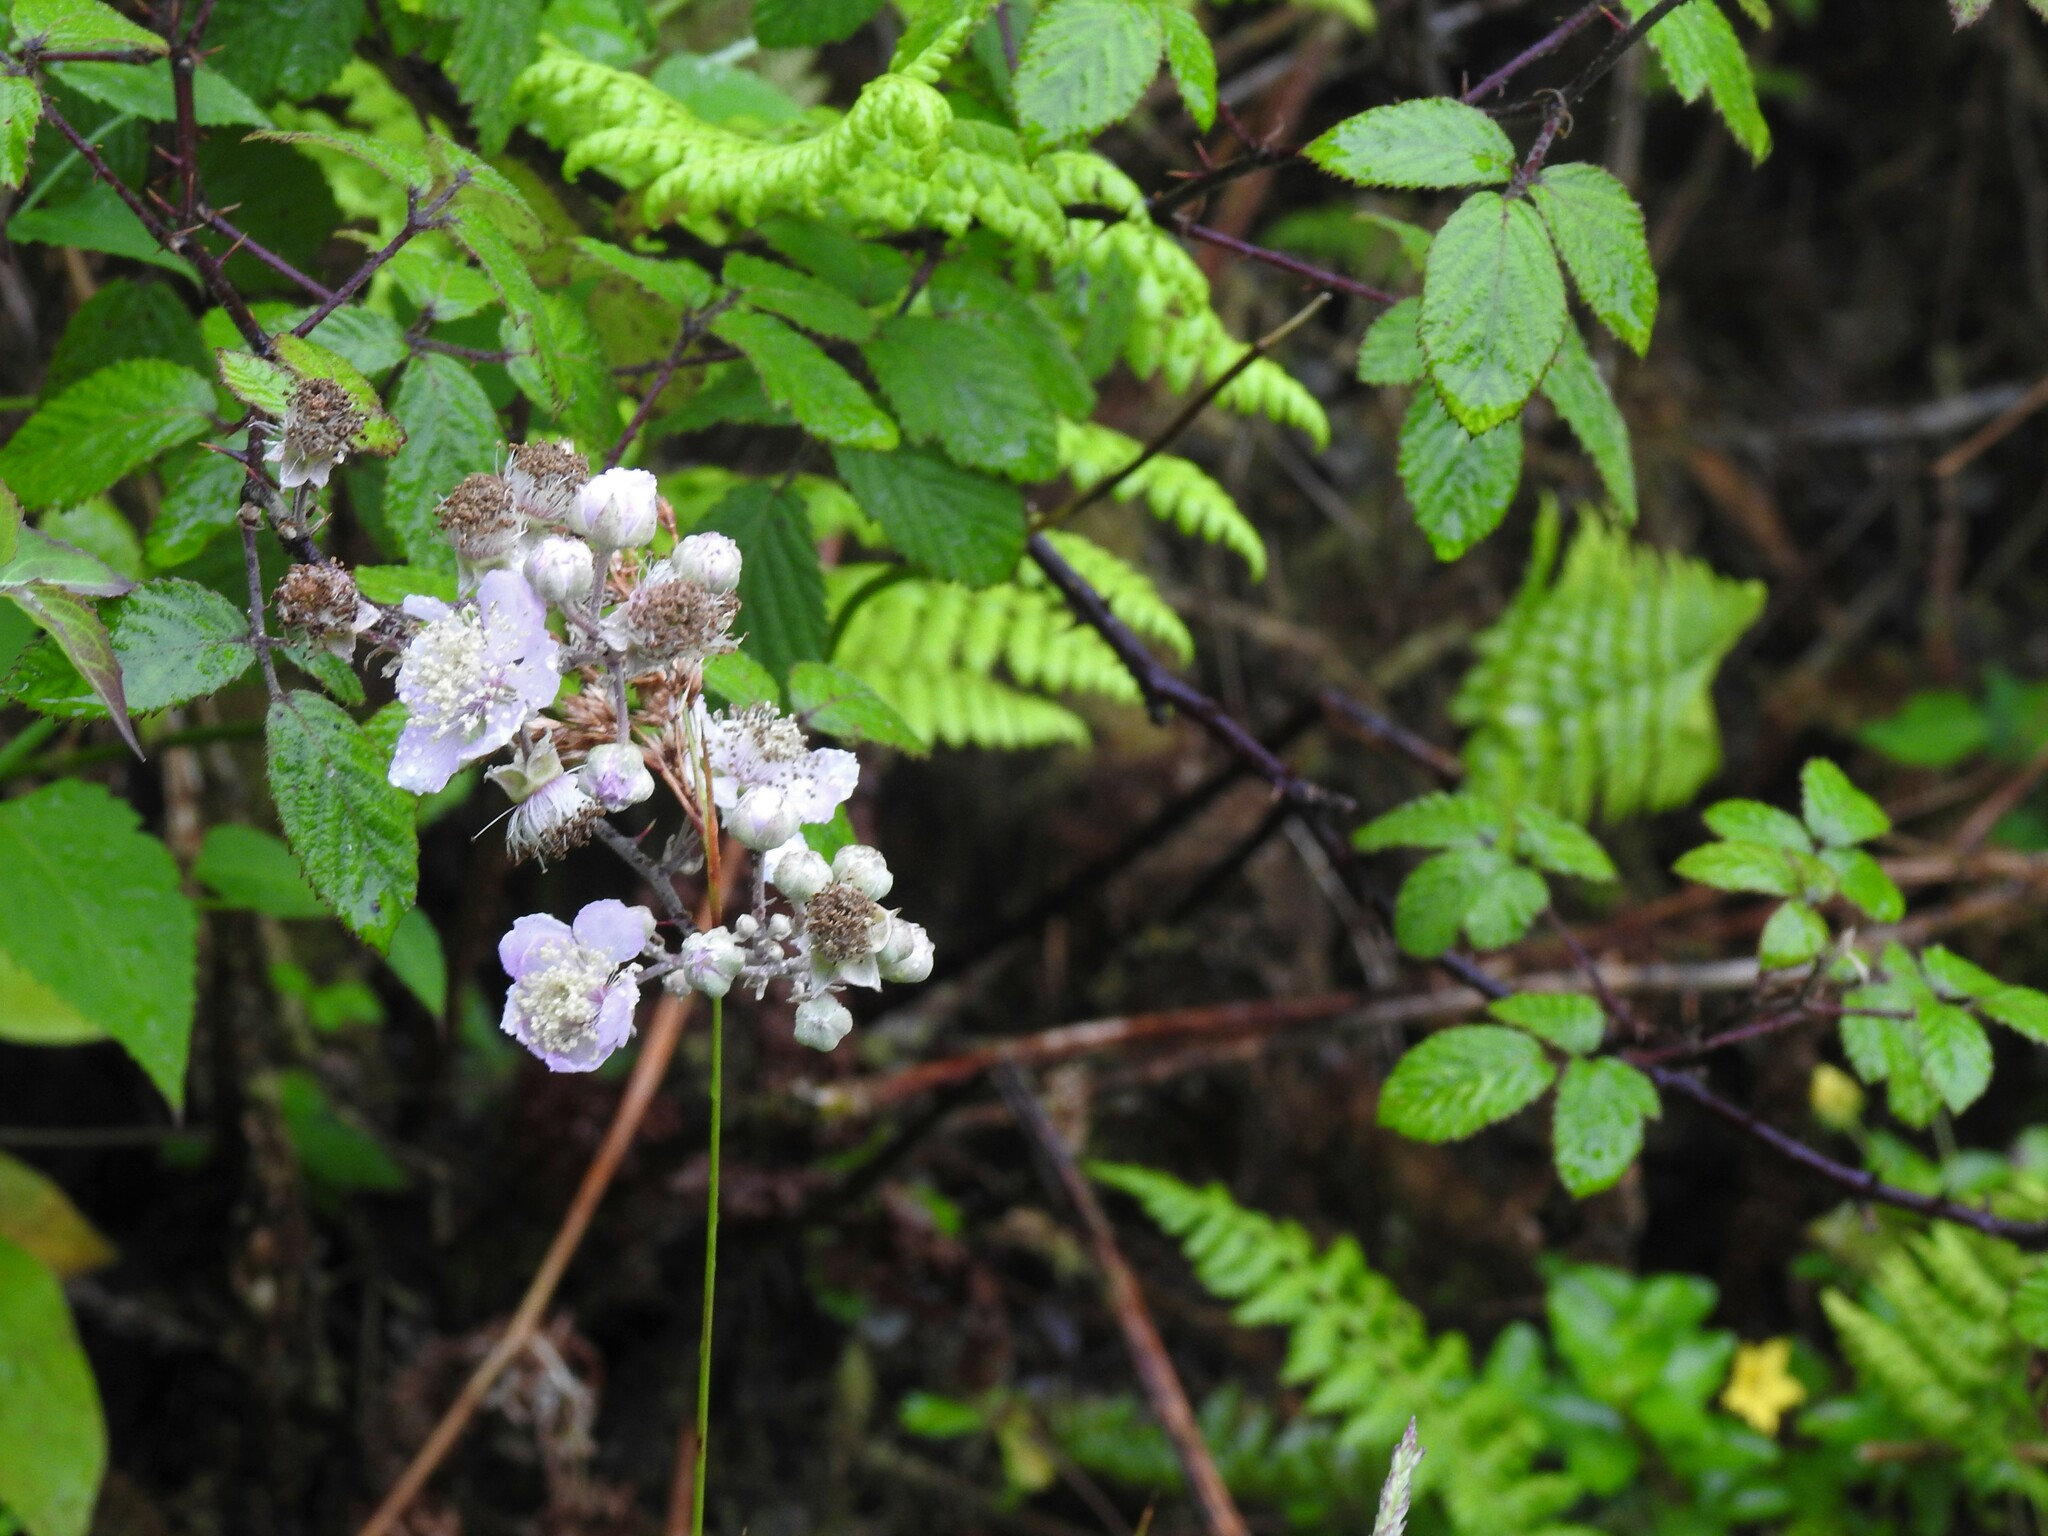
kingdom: Plantae
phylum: Tracheophyta
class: Magnoliopsida
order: Rosales
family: Rosaceae
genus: Rubus
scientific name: Rubus ulmifolius
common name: Elmleaf blackberry
